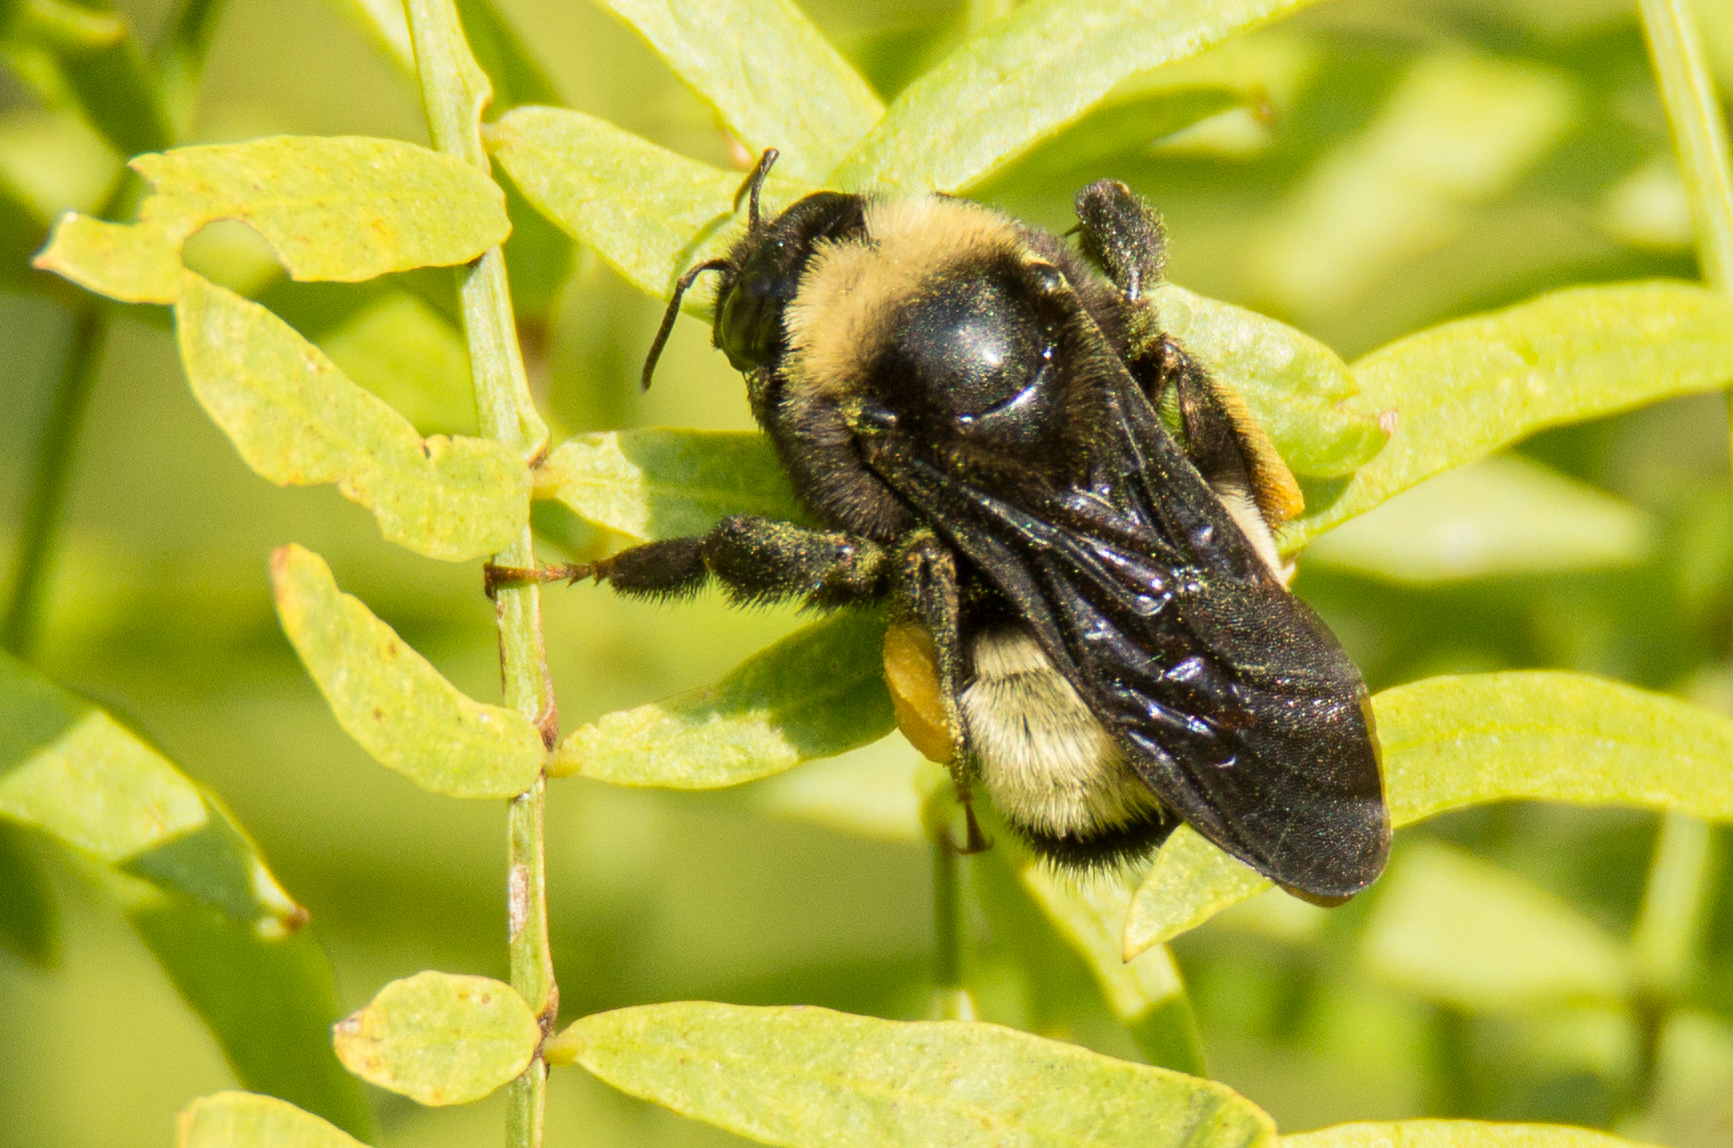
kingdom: Animalia
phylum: Arthropoda
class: Insecta
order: Hymenoptera
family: Apidae
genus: Bombus
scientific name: Bombus pensylvanicus
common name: Bumble bee
